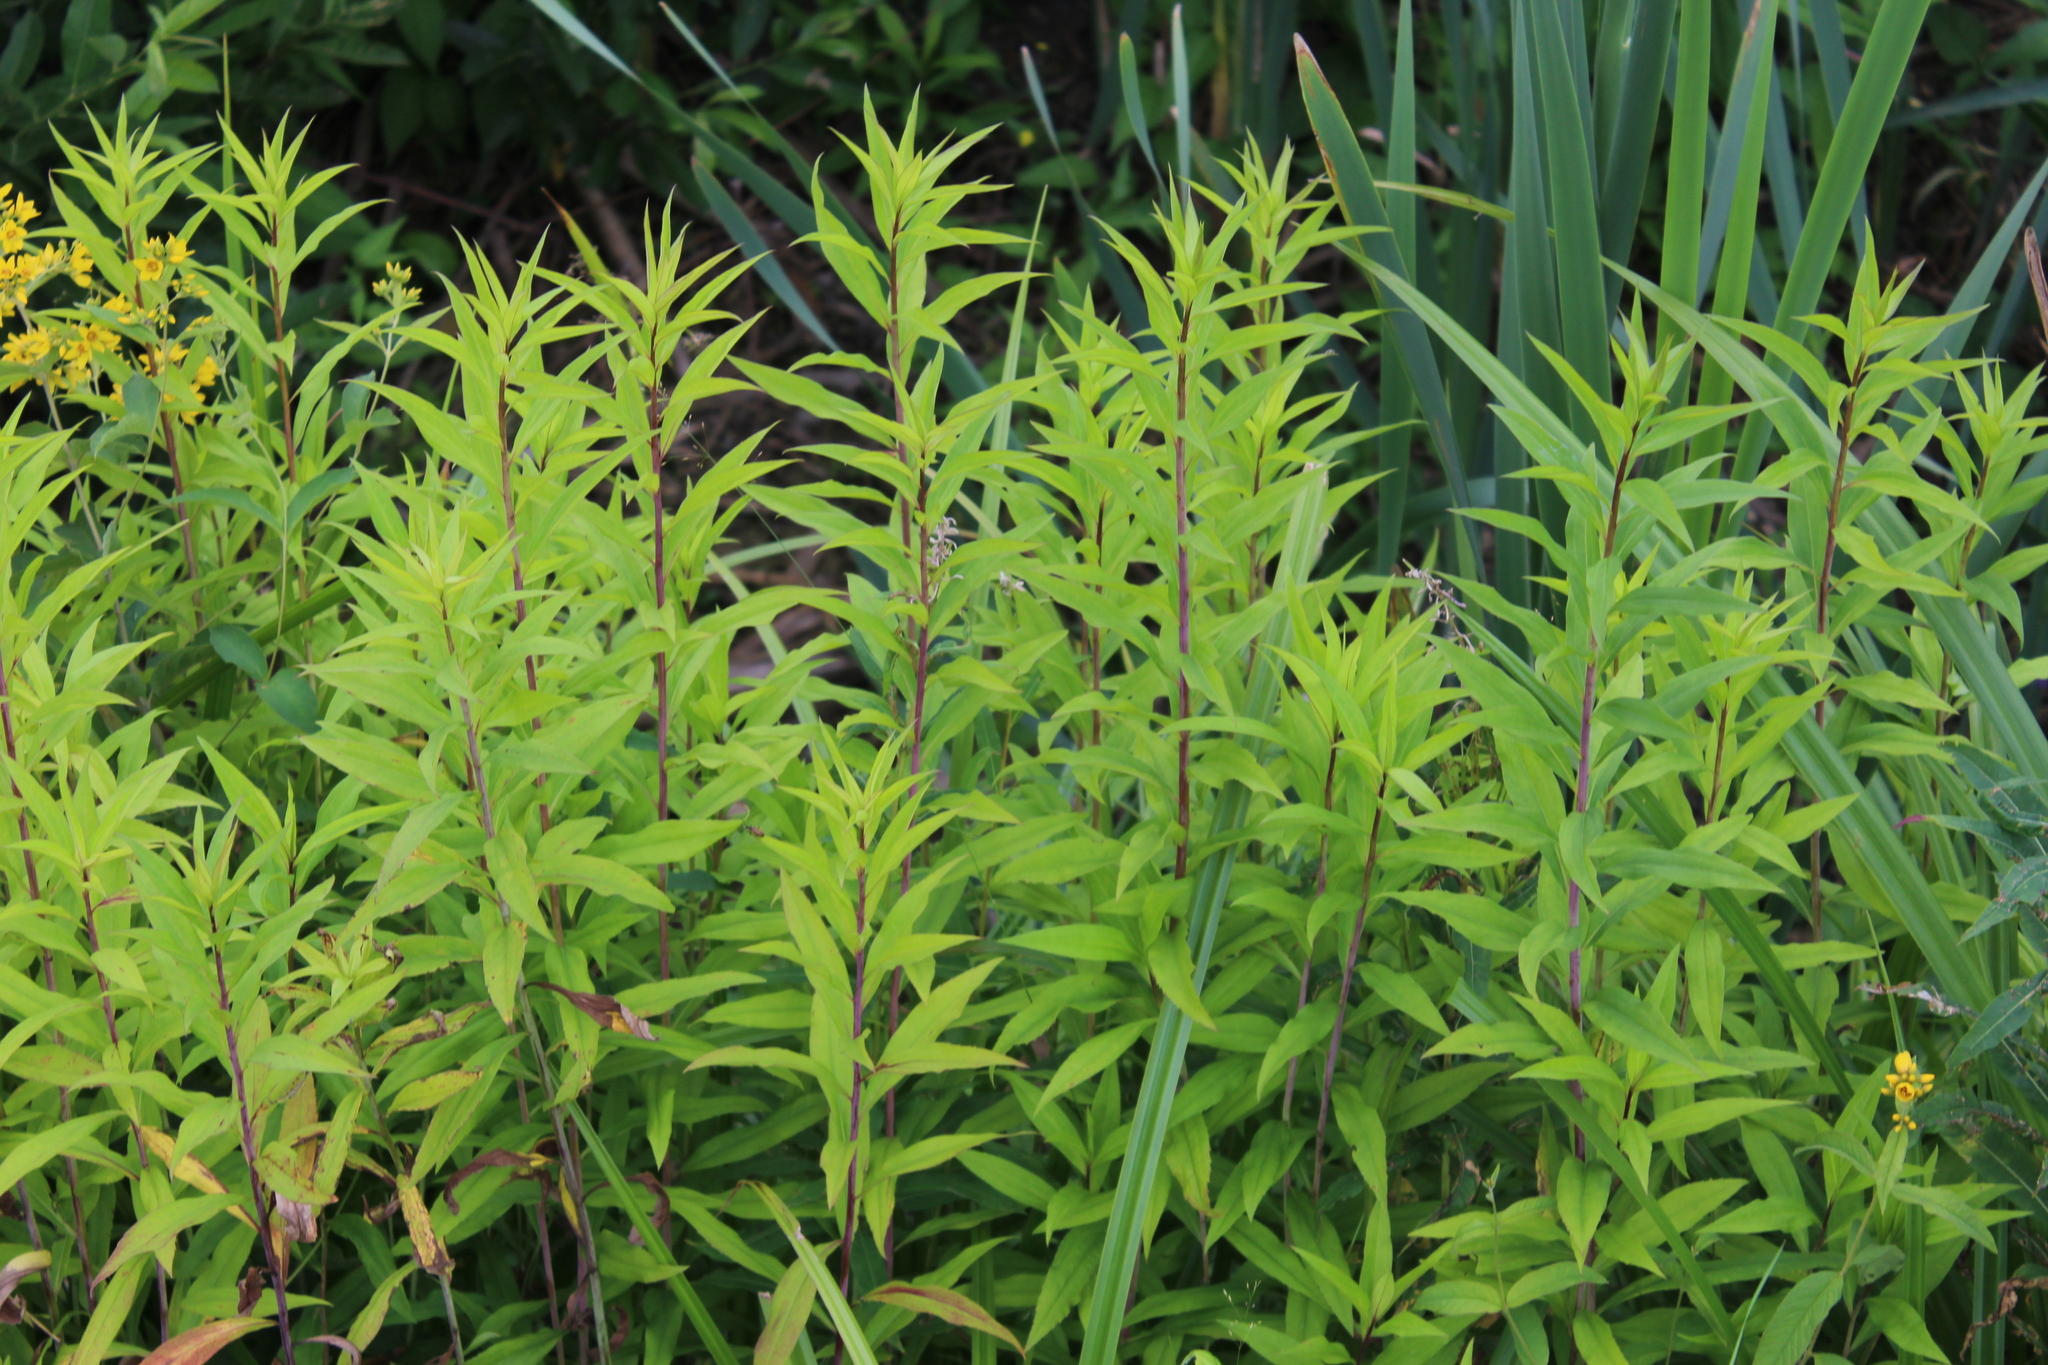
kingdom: Plantae
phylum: Tracheophyta
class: Magnoliopsida
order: Asterales
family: Asteraceae
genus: Solidago
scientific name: Solidago gigantea
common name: Giant goldenrod
